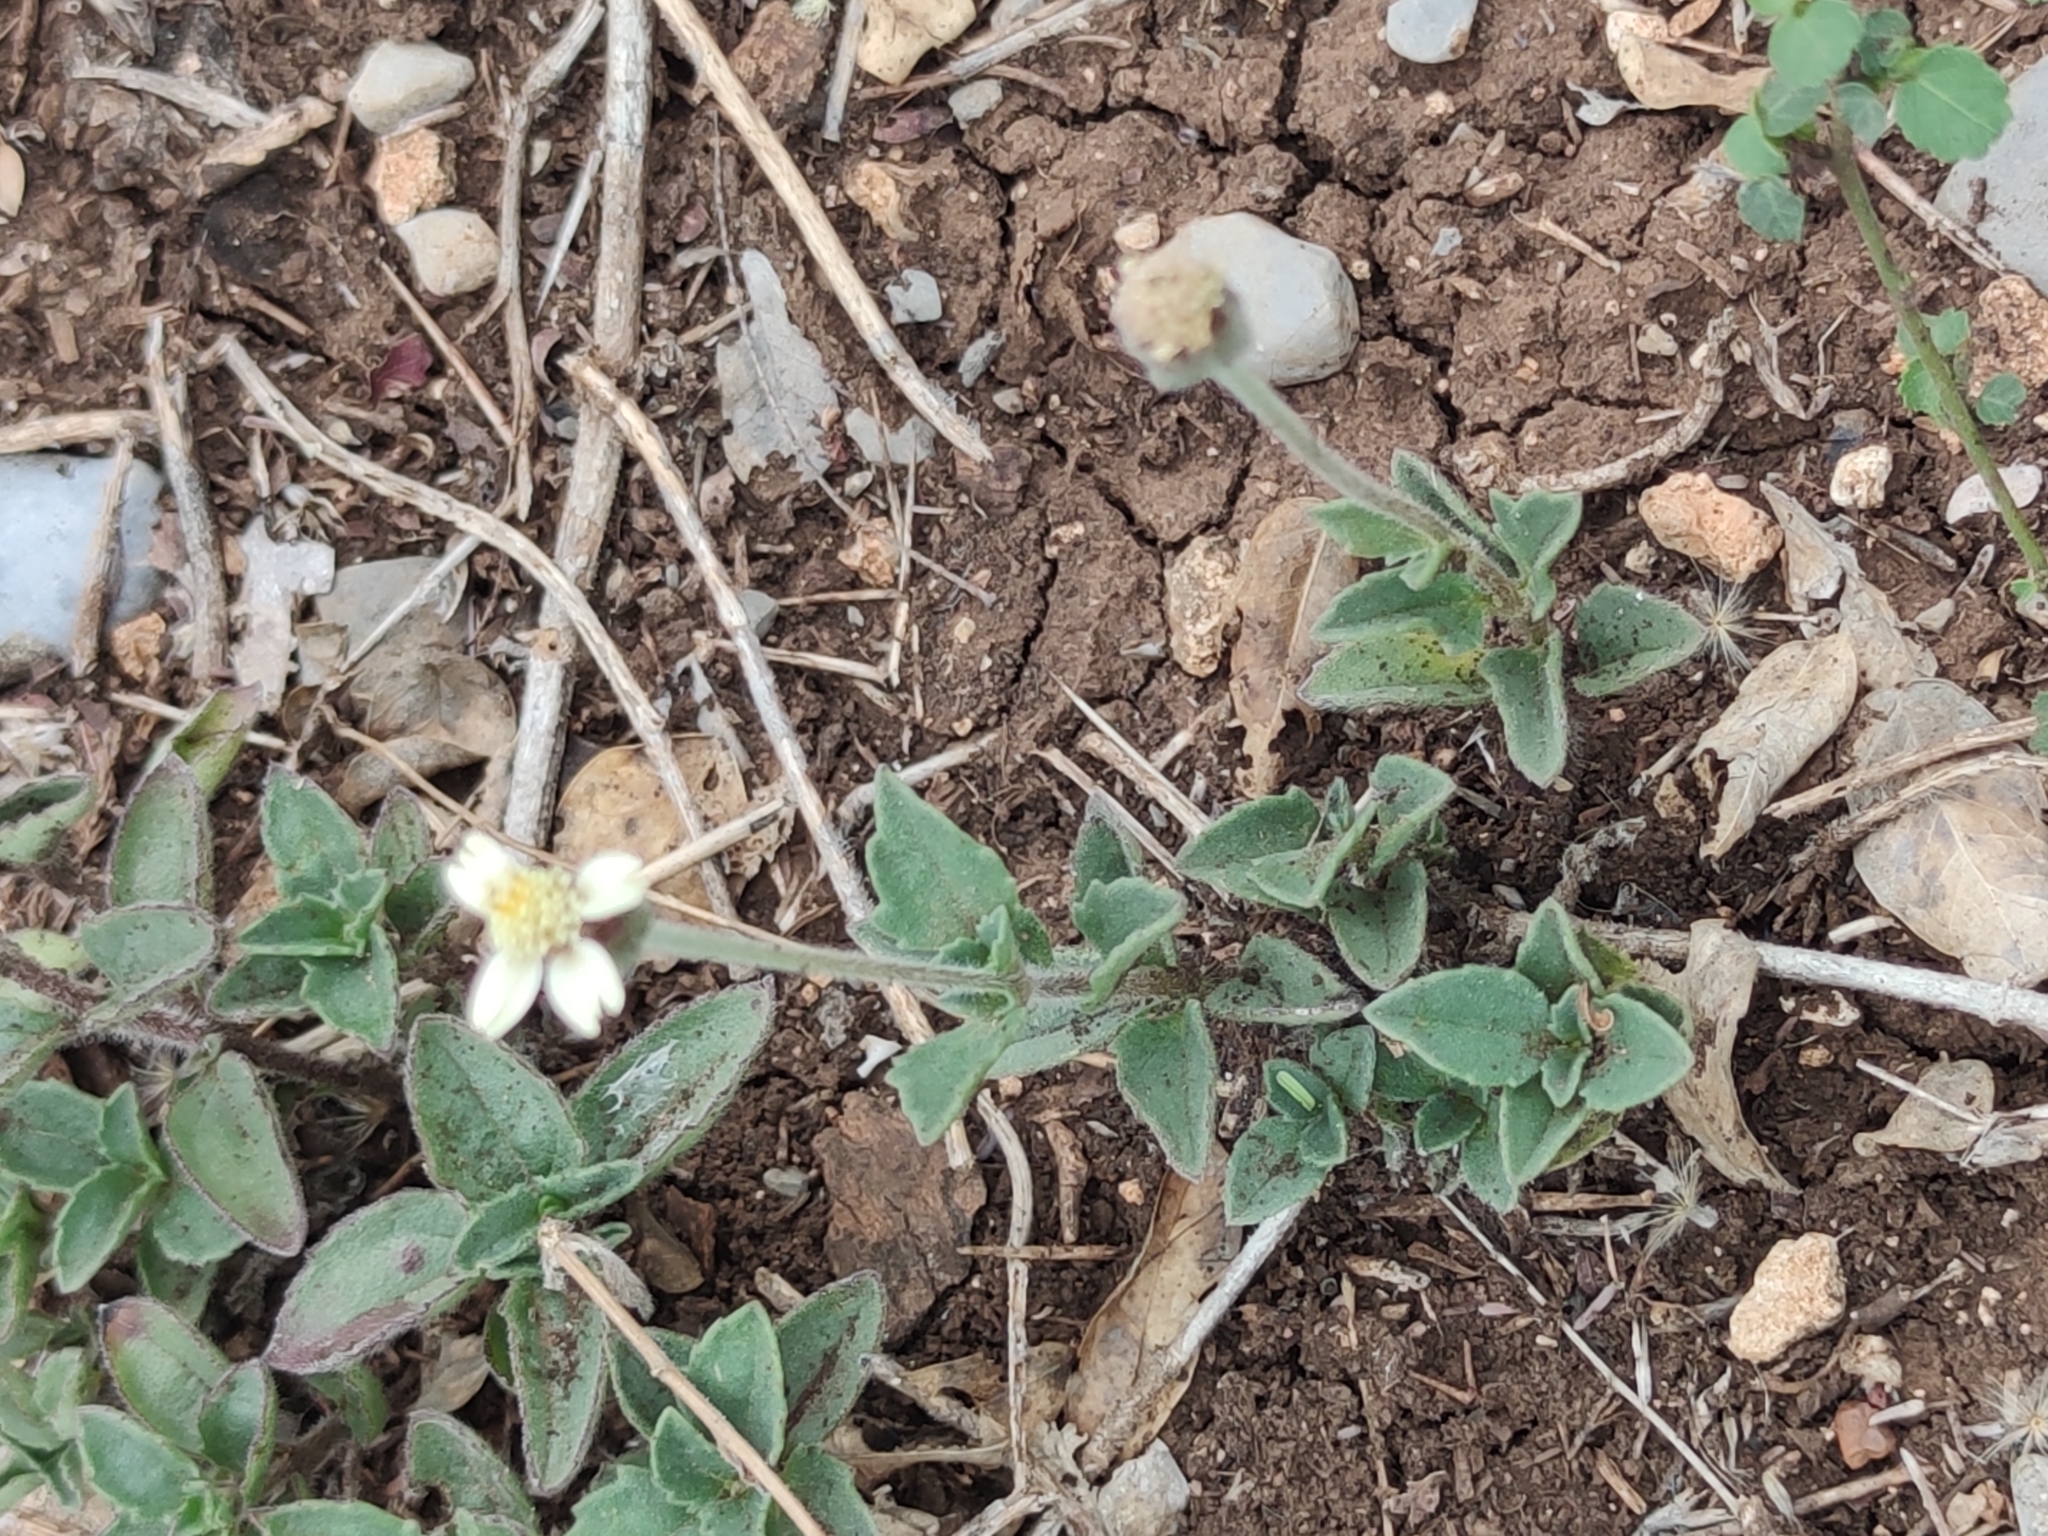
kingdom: Plantae
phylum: Tracheophyta
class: Magnoliopsida
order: Asterales
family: Asteraceae
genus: Tridax
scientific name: Tridax procumbens
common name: Coatbuttons
